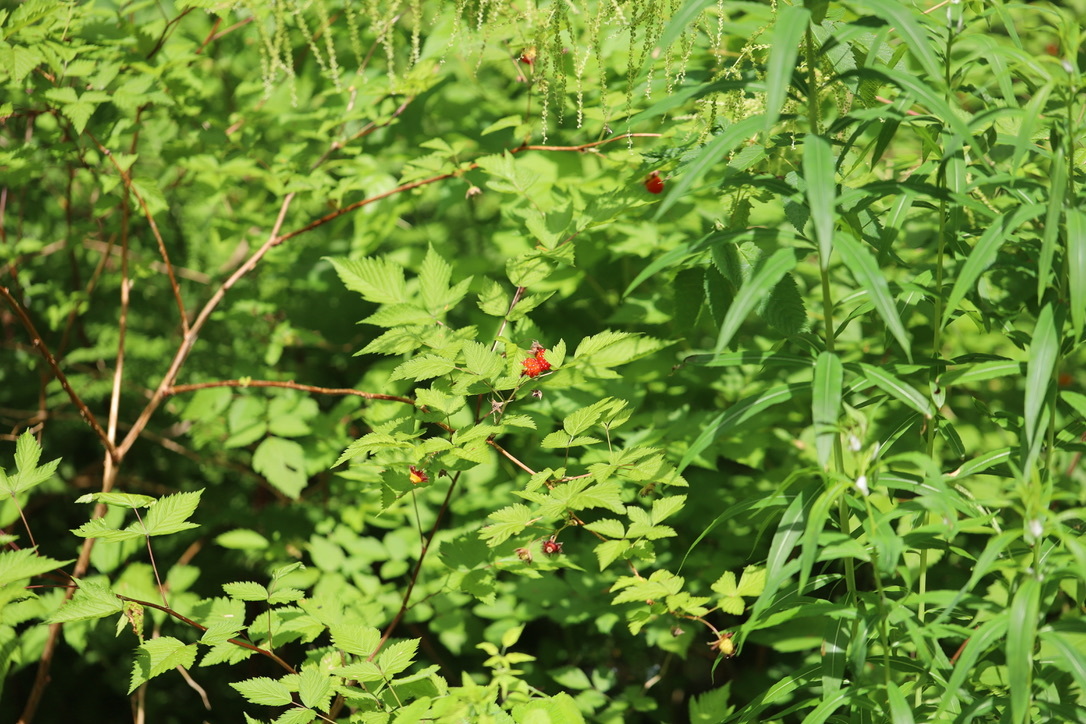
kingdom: Plantae
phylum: Tracheophyta
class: Magnoliopsida
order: Rosales
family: Rosaceae
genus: Rubus
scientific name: Rubus spectabilis
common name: Salmonberry
